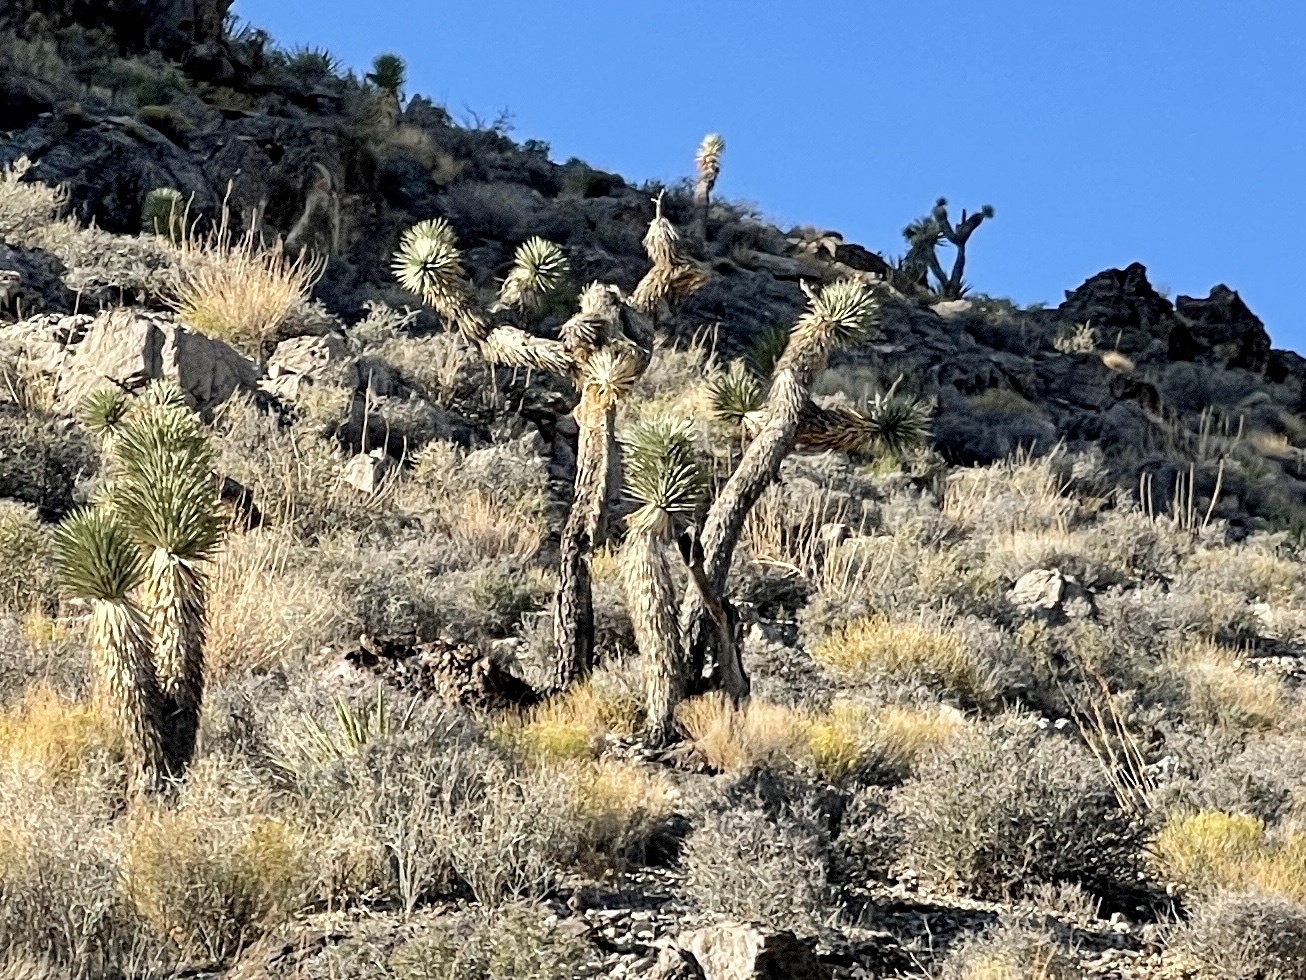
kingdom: Plantae
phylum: Tracheophyta
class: Liliopsida
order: Asparagales
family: Asparagaceae
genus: Yucca
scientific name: Yucca brevifolia
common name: Joshua tree
